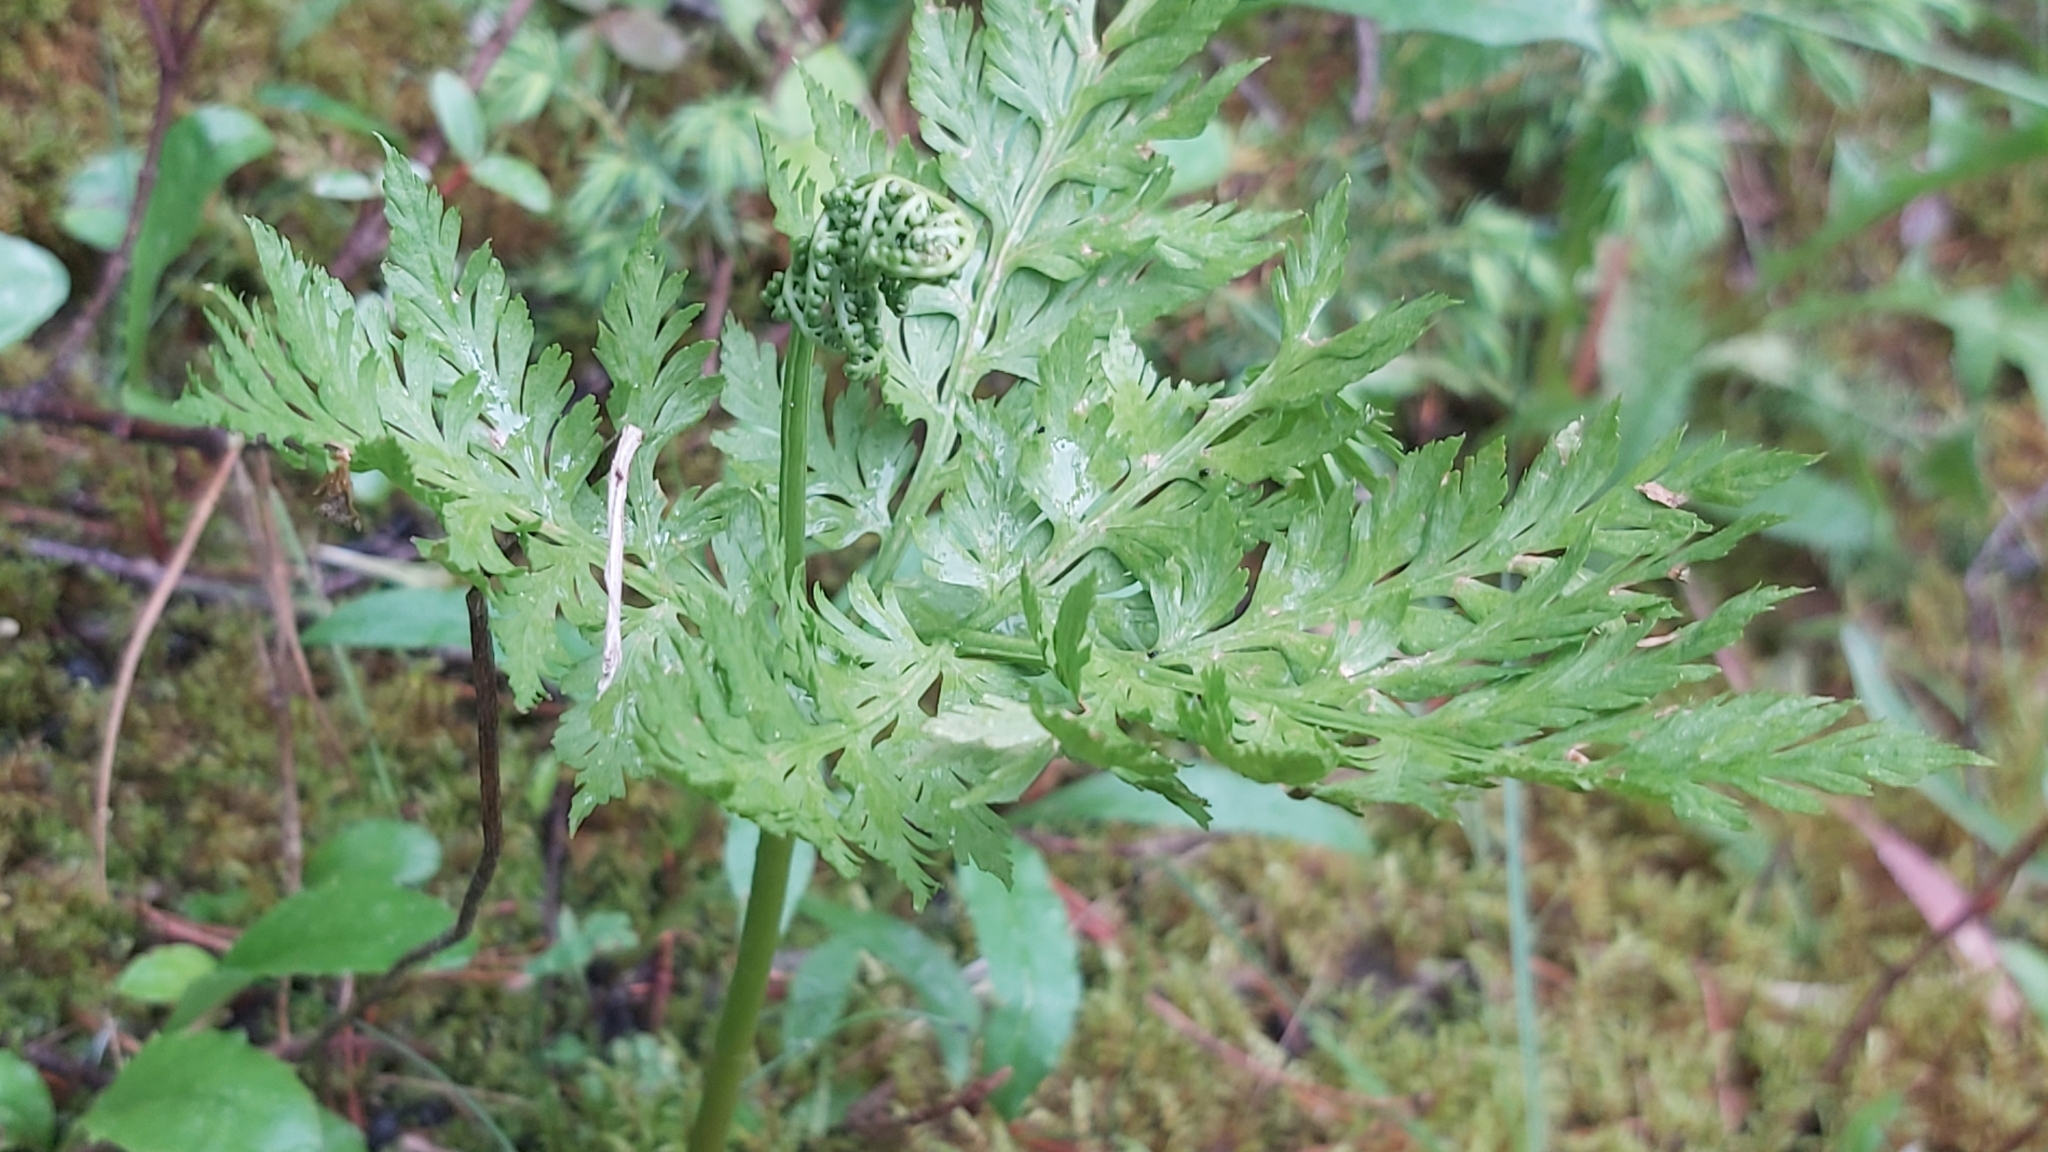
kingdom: Plantae
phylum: Tracheophyta
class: Polypodiopsida
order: Ophioglossales
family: Ophioglossaceae
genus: Botrypus
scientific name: Botrypus virginianus
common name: Common grapefern
